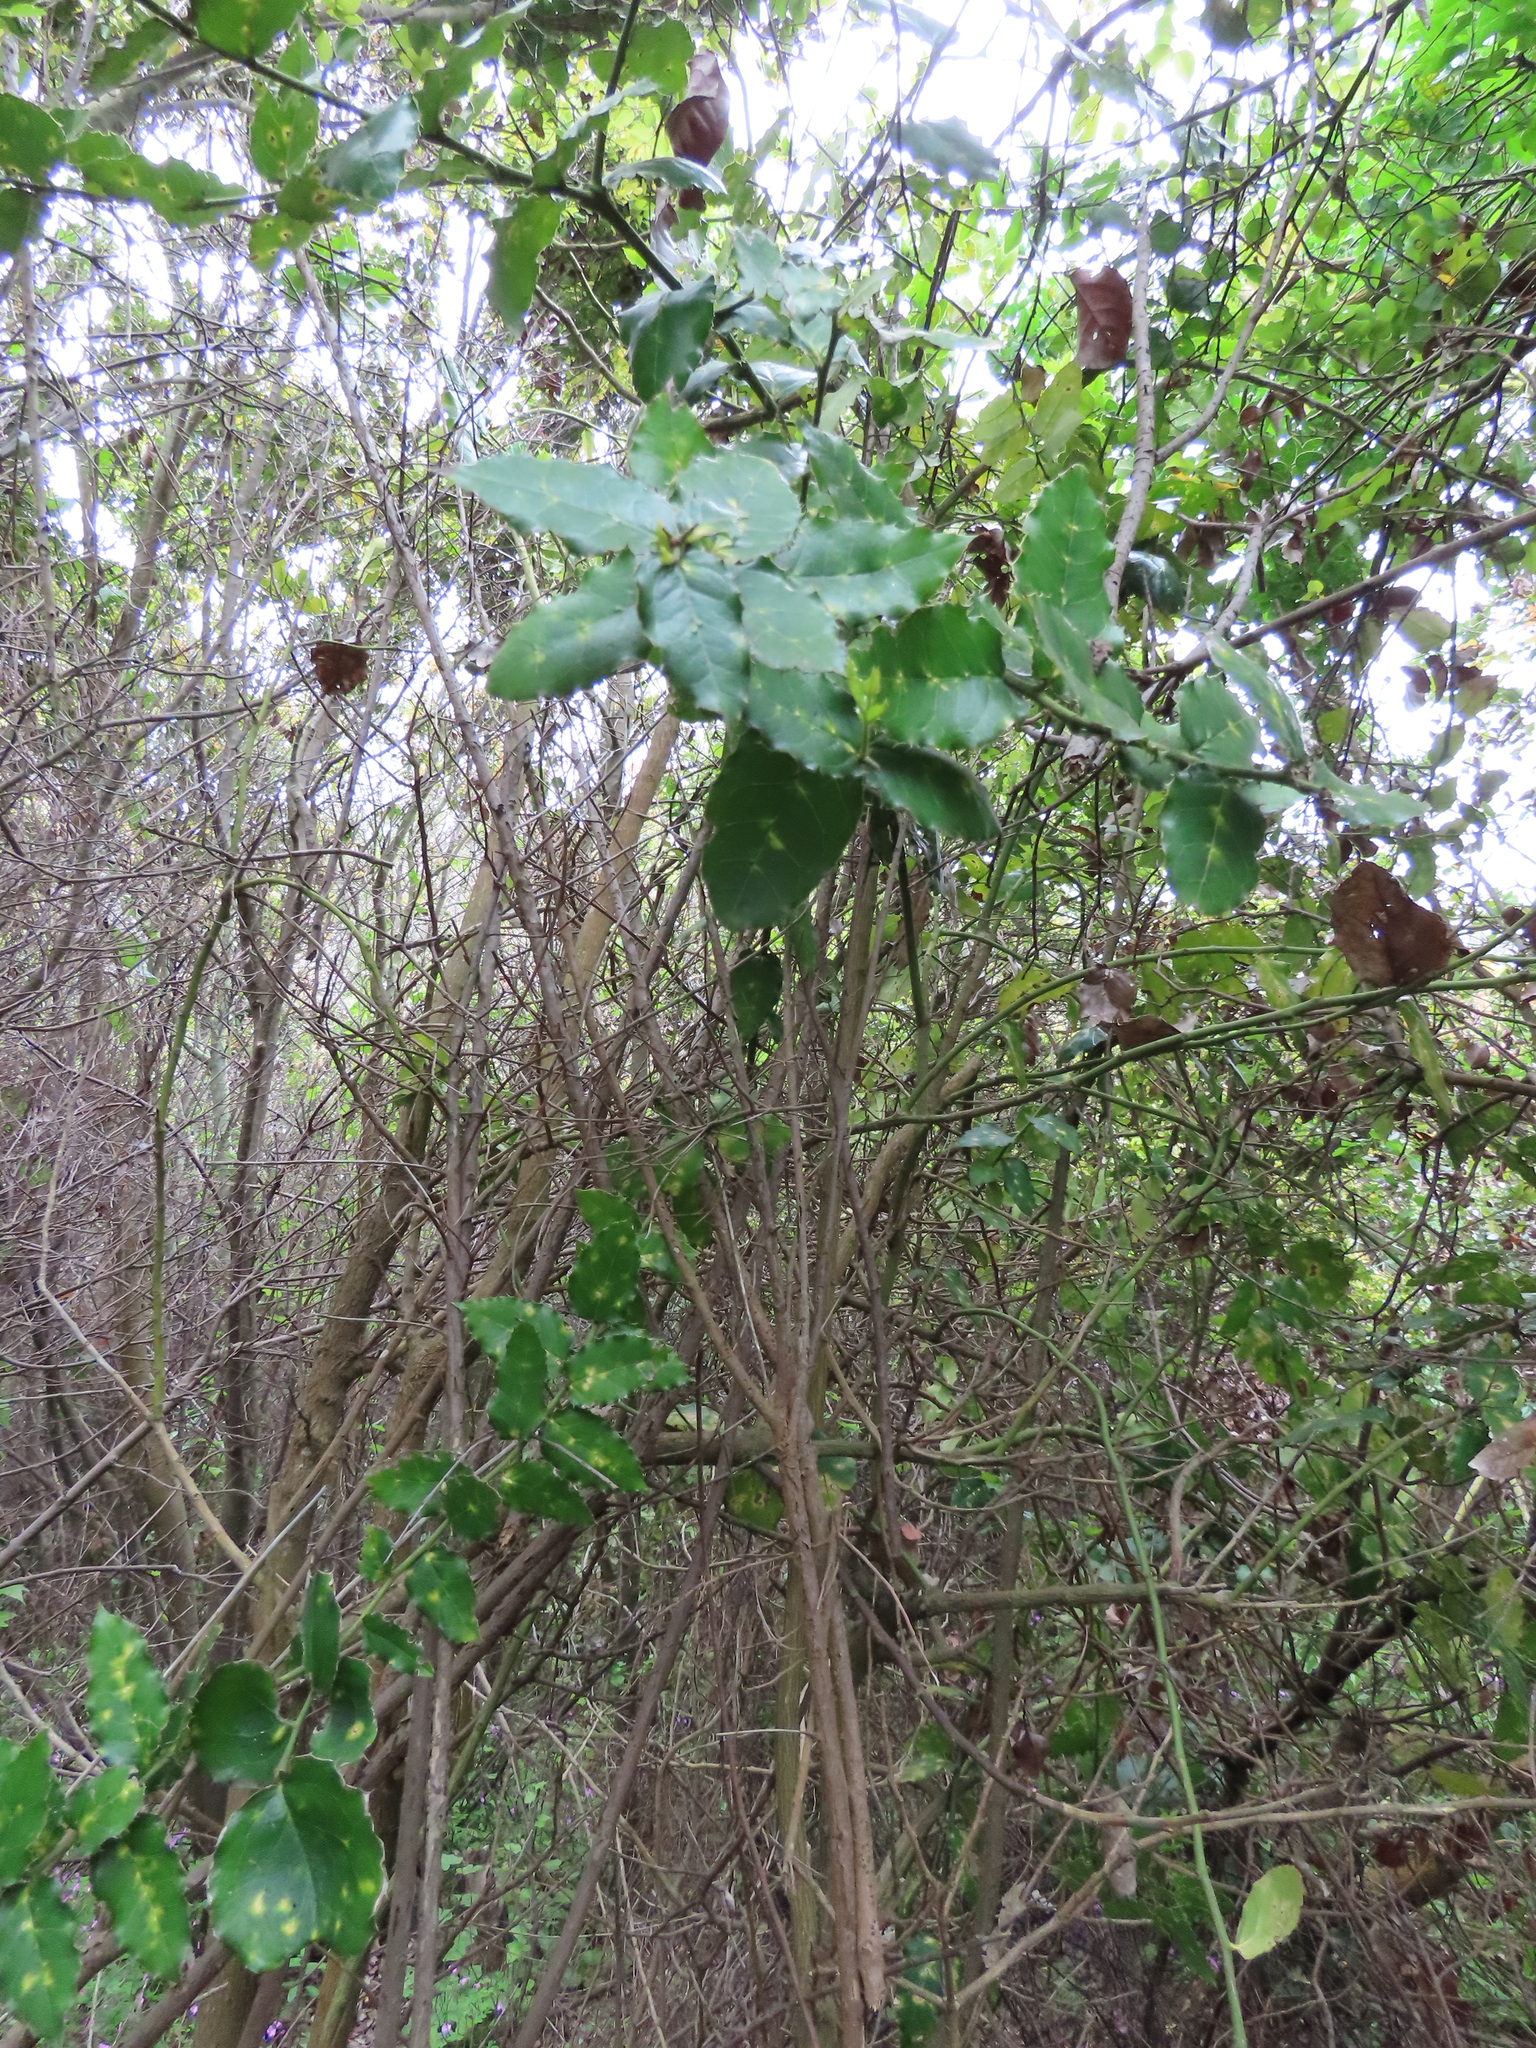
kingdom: Plantae
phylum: Tracheophyta
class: Magnoliopsida
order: Cardiopteridales
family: Cardiopteridaceae
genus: Citronella
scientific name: Citronella mucronata
